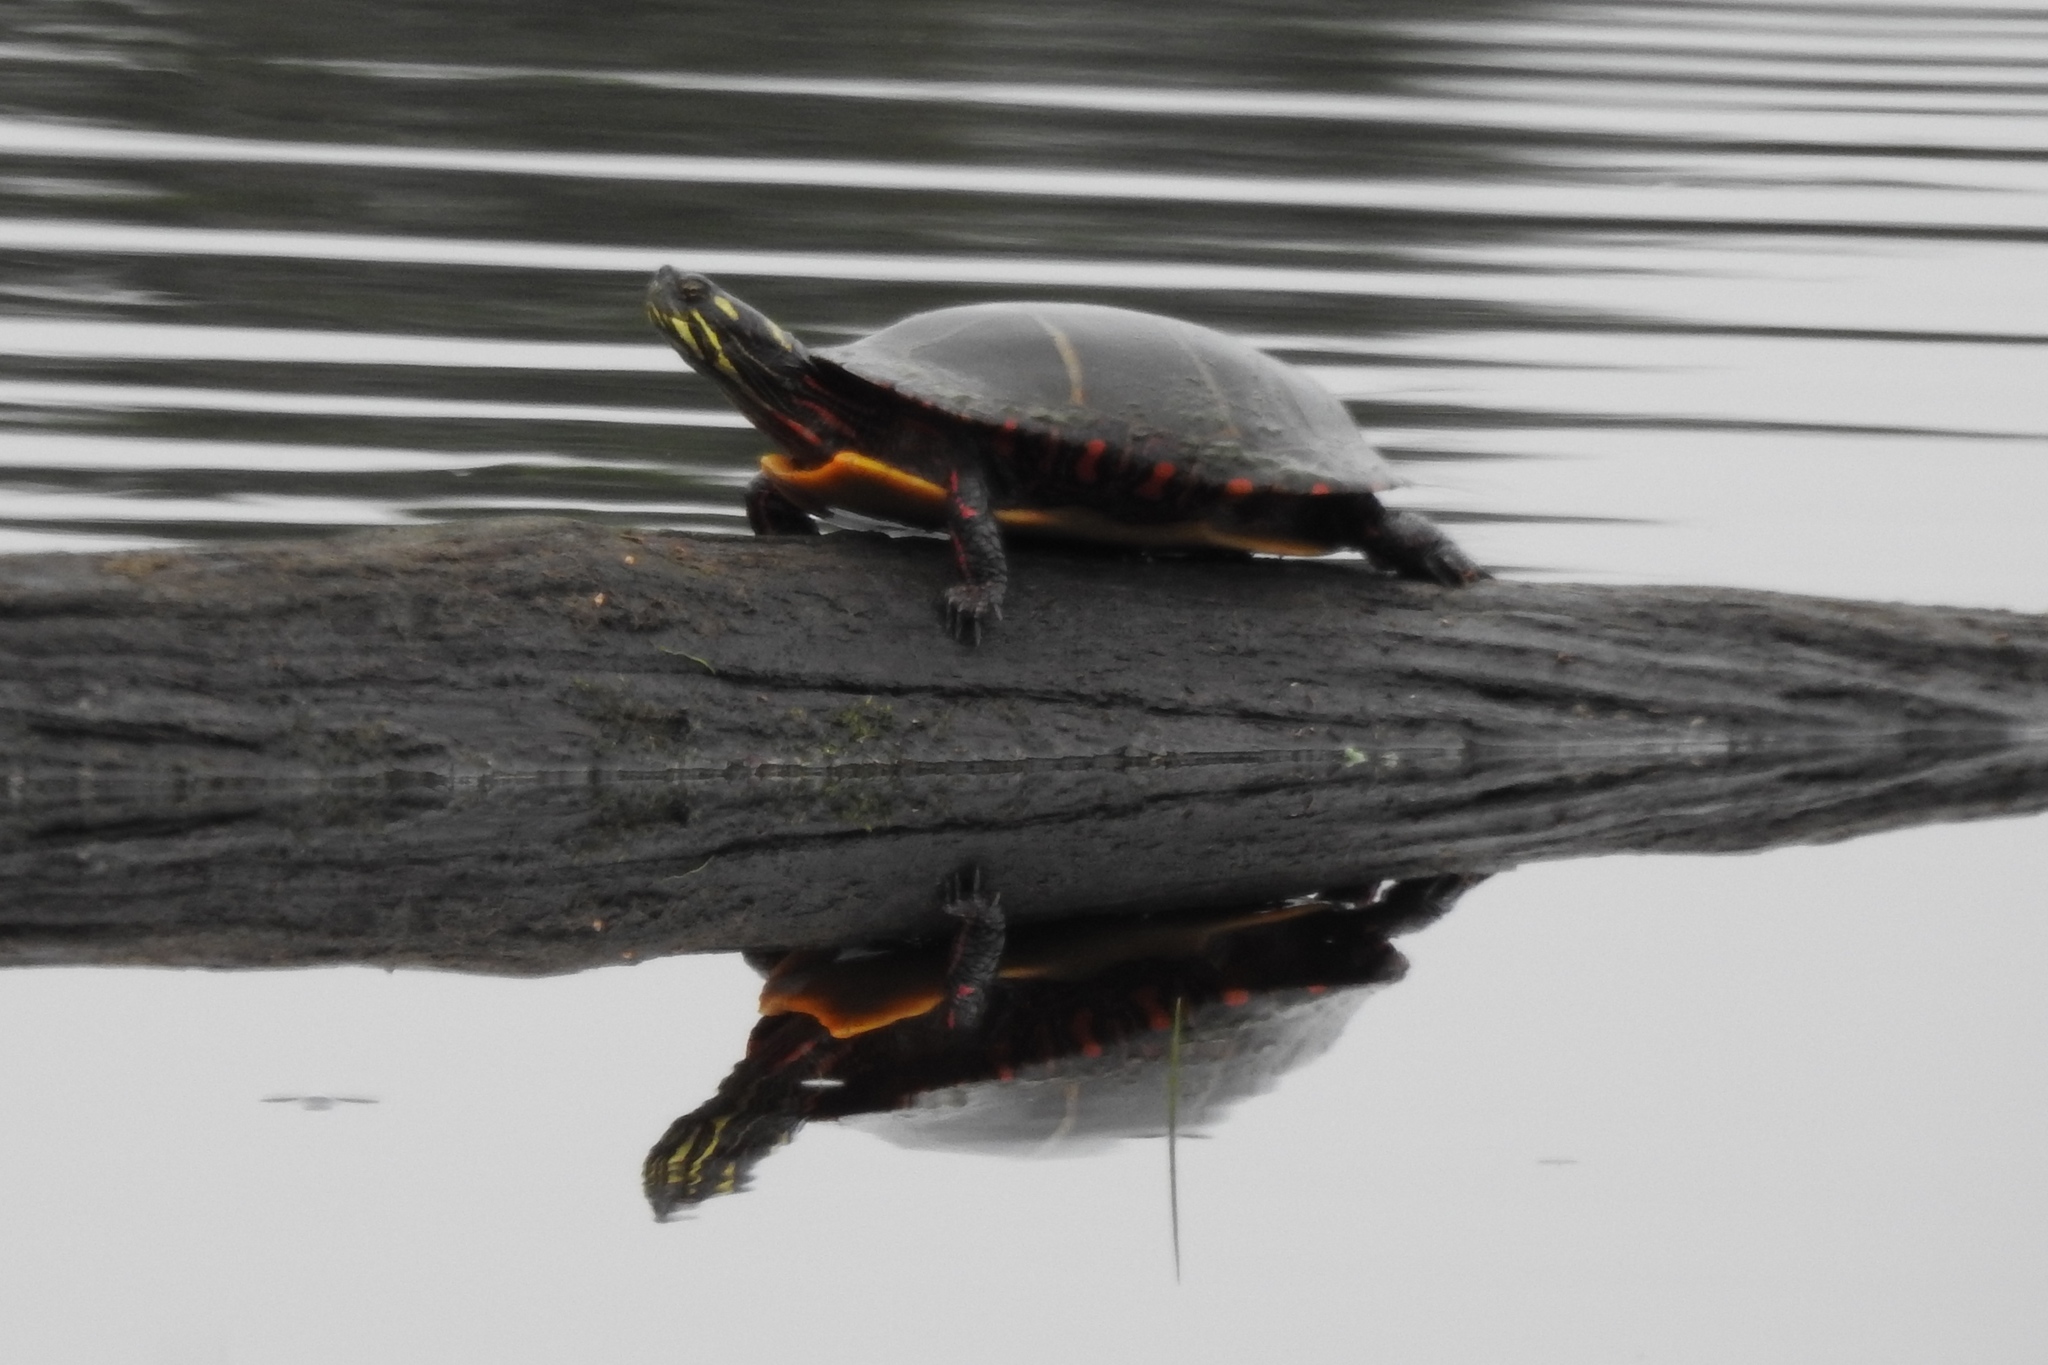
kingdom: Animalia
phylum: Chordata
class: Testudines
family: Emydidae
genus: Chrysemys
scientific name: Chrysemys picta
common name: Painted turtle
